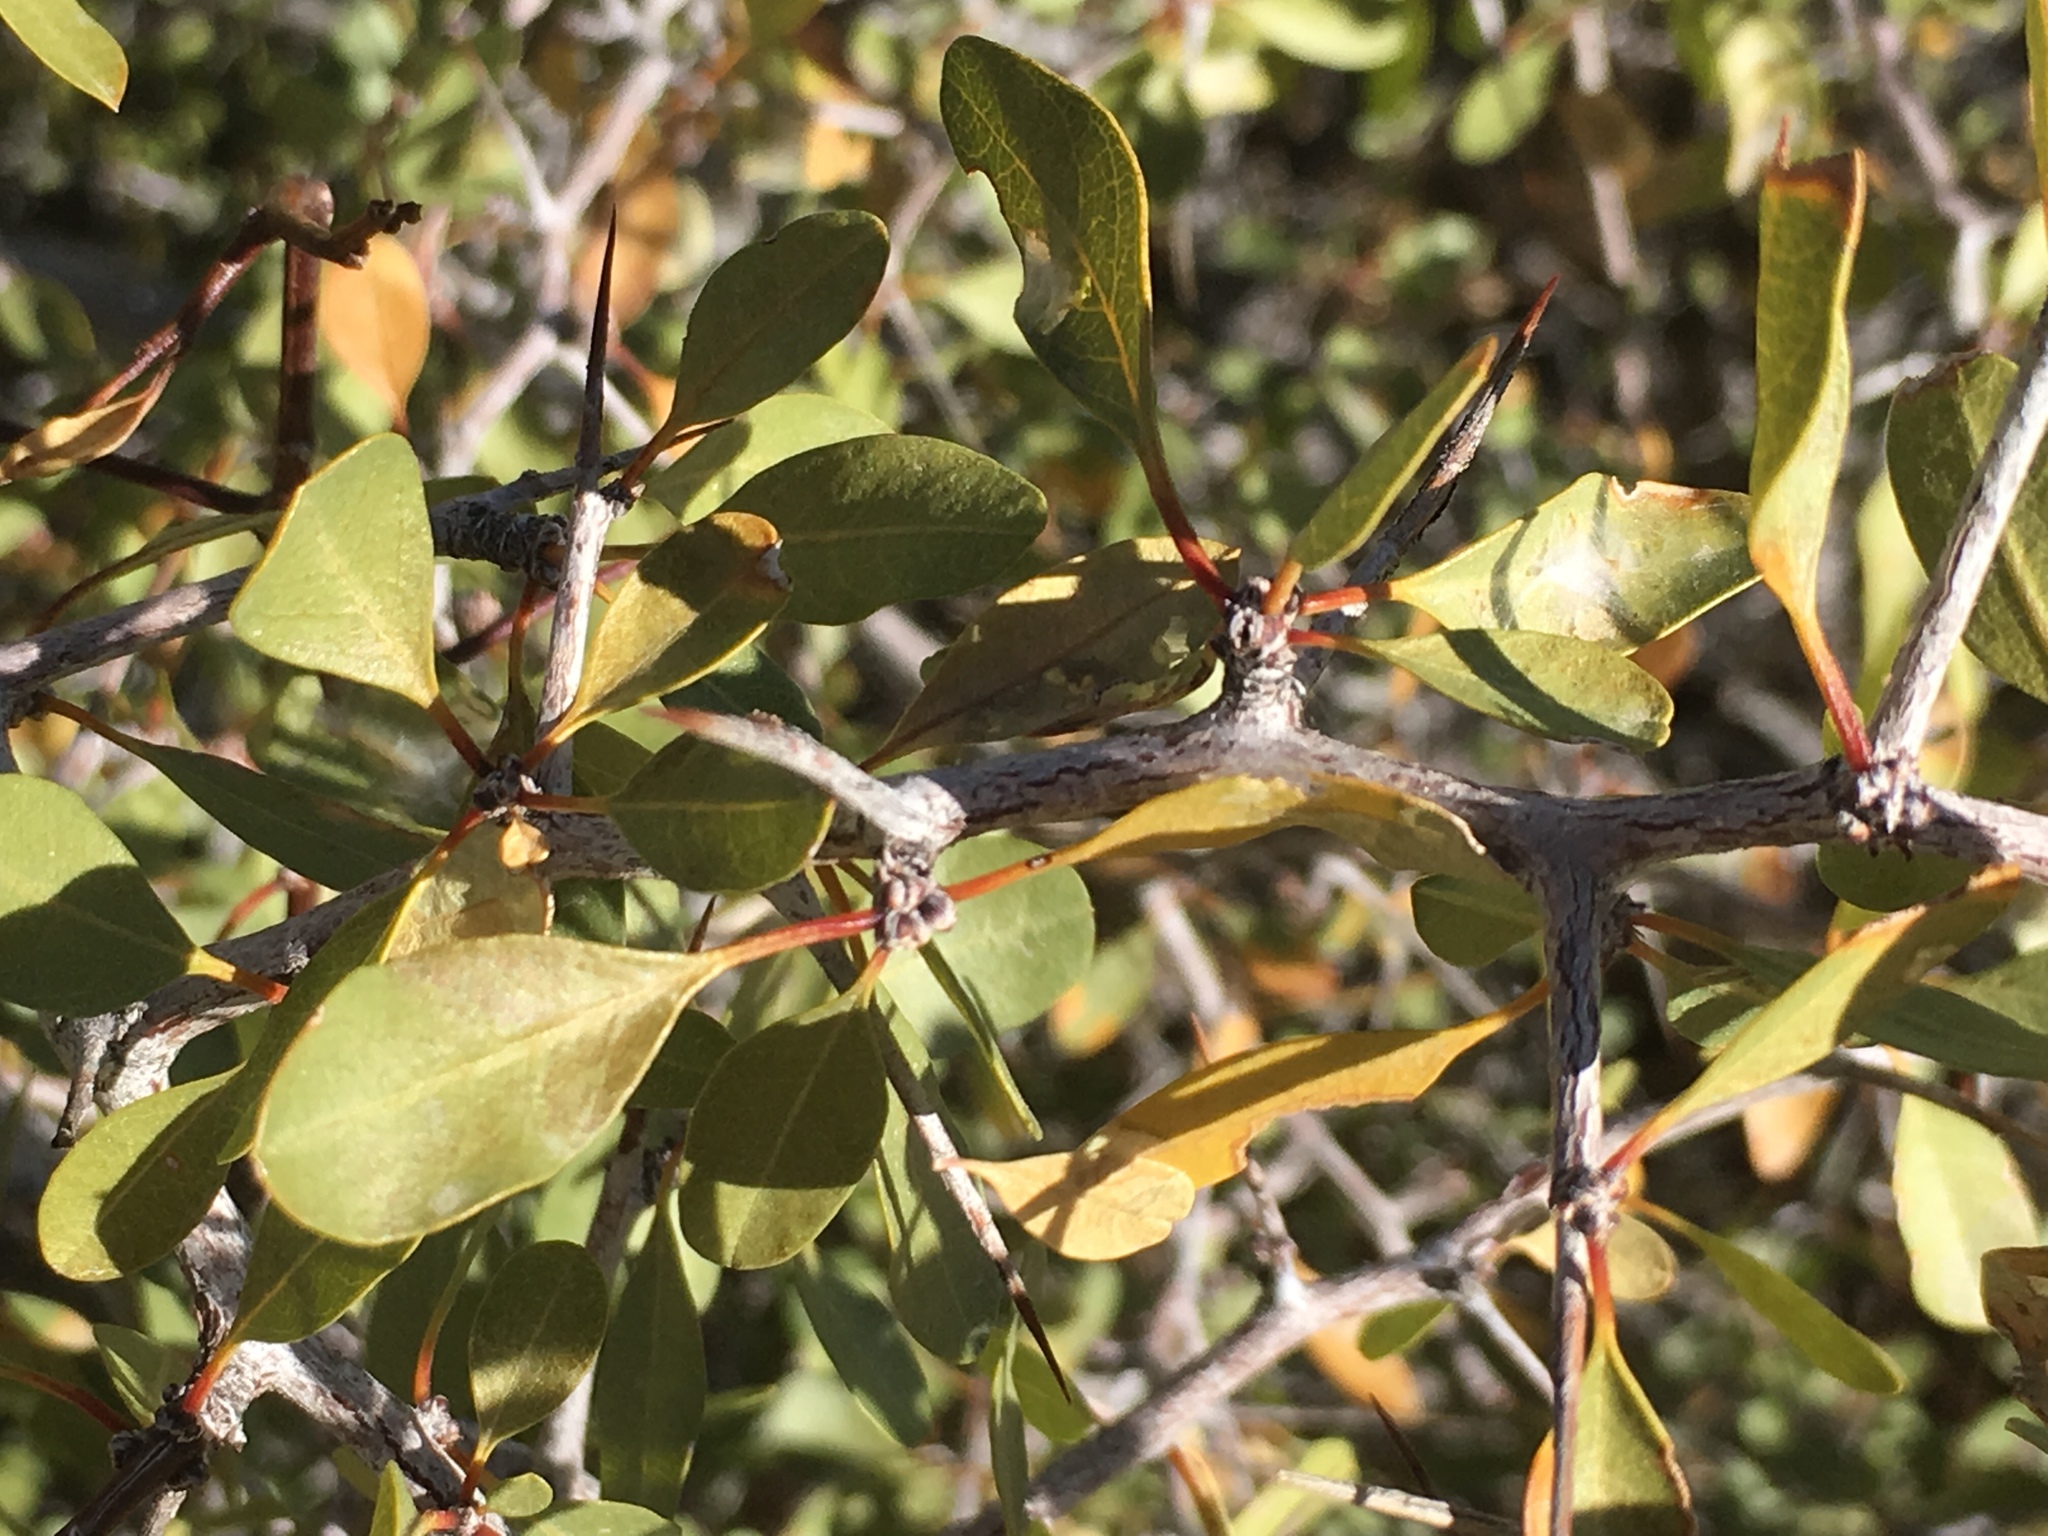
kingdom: Plantae
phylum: Tracheophyta
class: Magnoliopsida
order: Rosales
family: Rhamnaceae
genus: Pseudoziziphus
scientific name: Pseudoziziphus parryi
